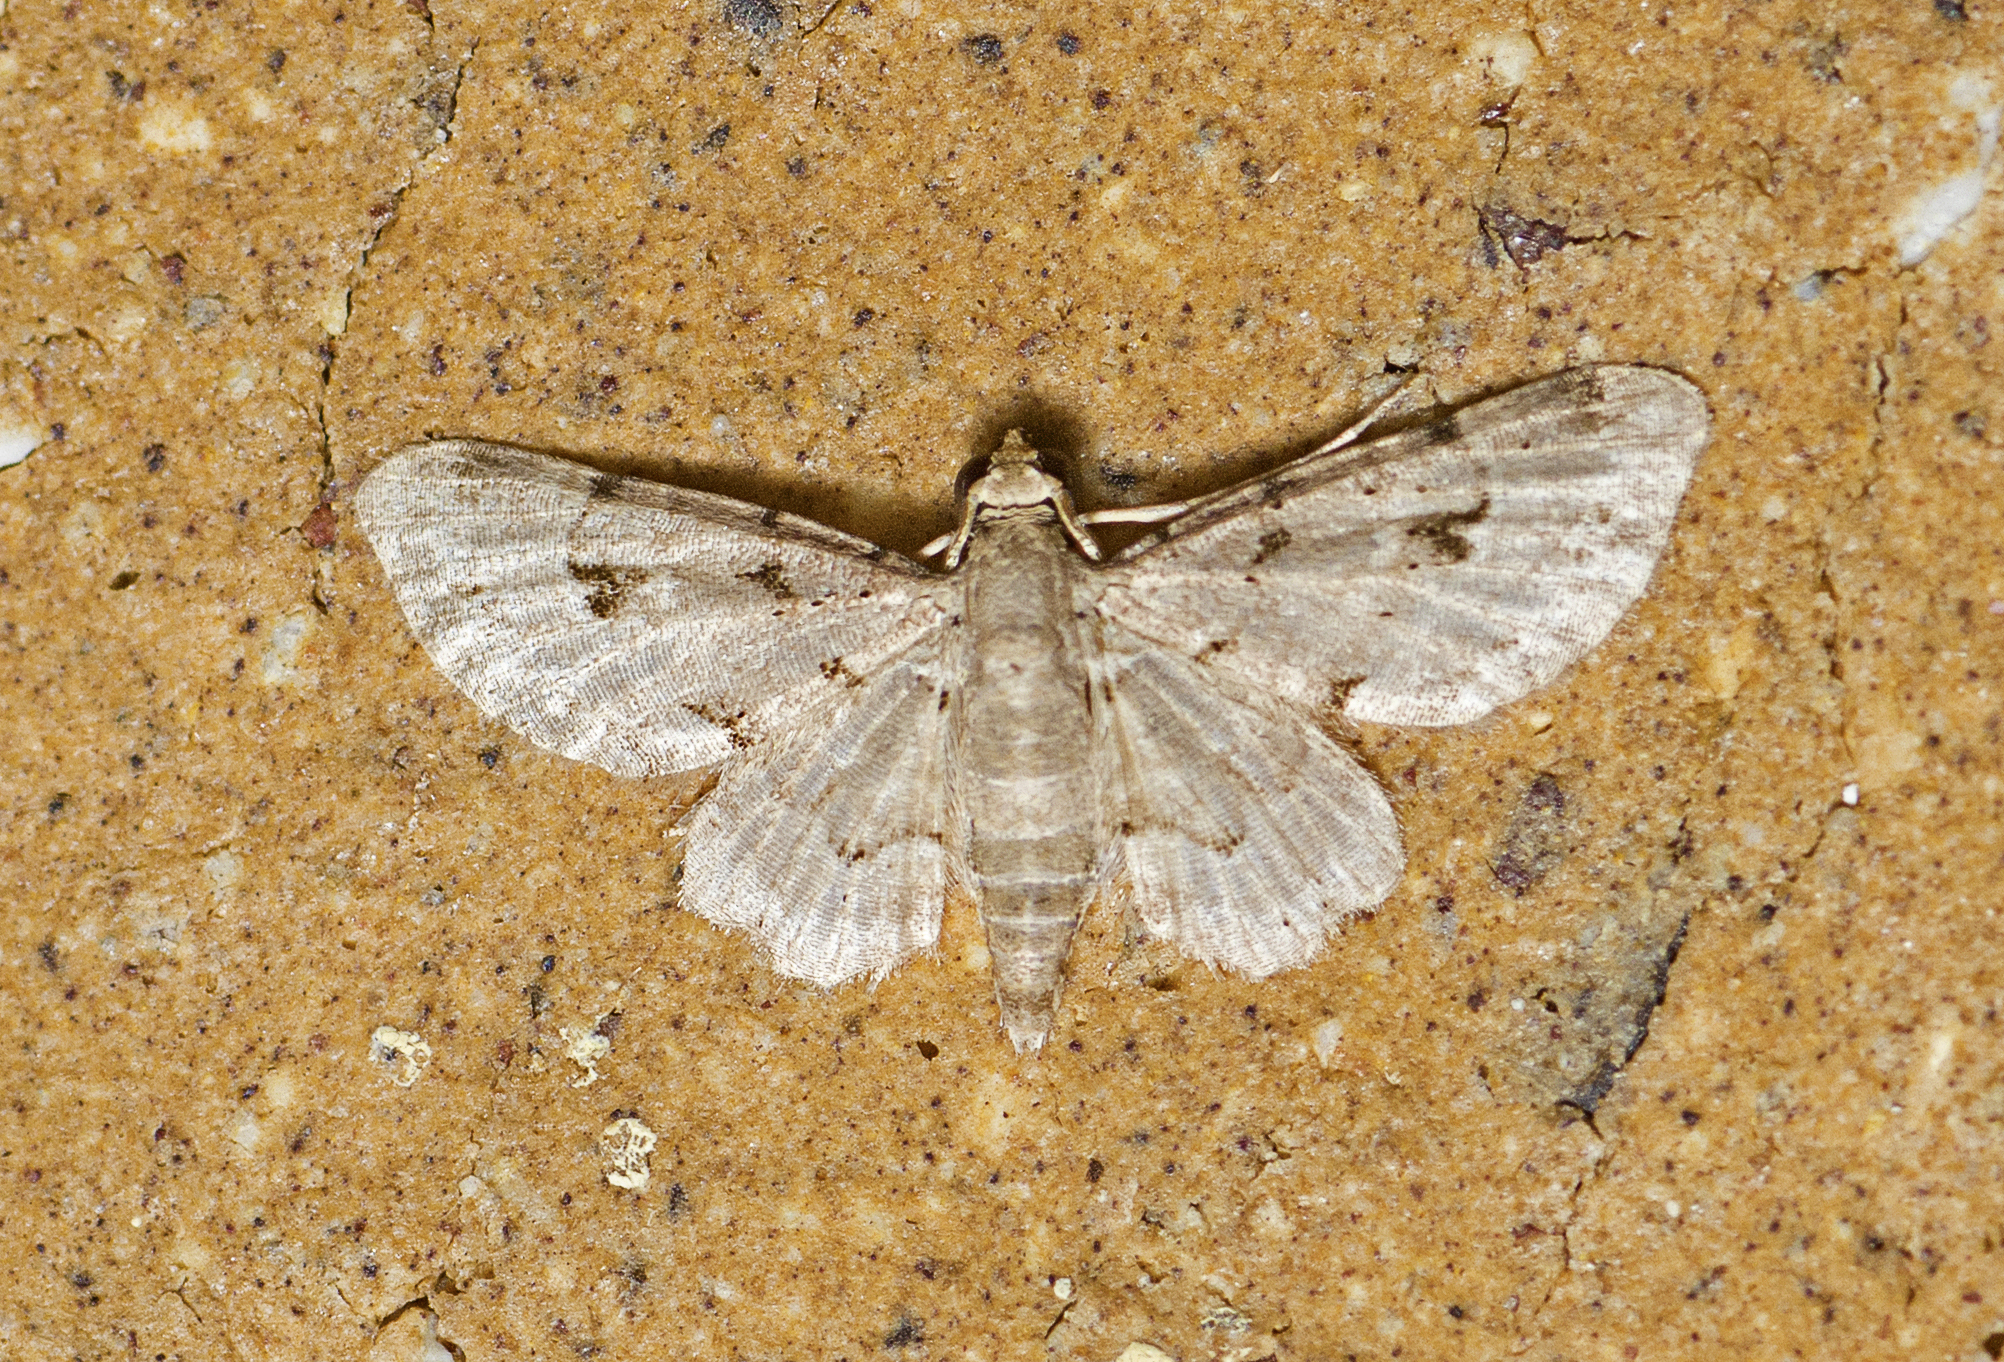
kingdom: Animalia
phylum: Arthropoda
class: Insecta
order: Lepidoptera
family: Geometridae
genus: Gymnoscelis
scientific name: Gymnoscelis spodias
